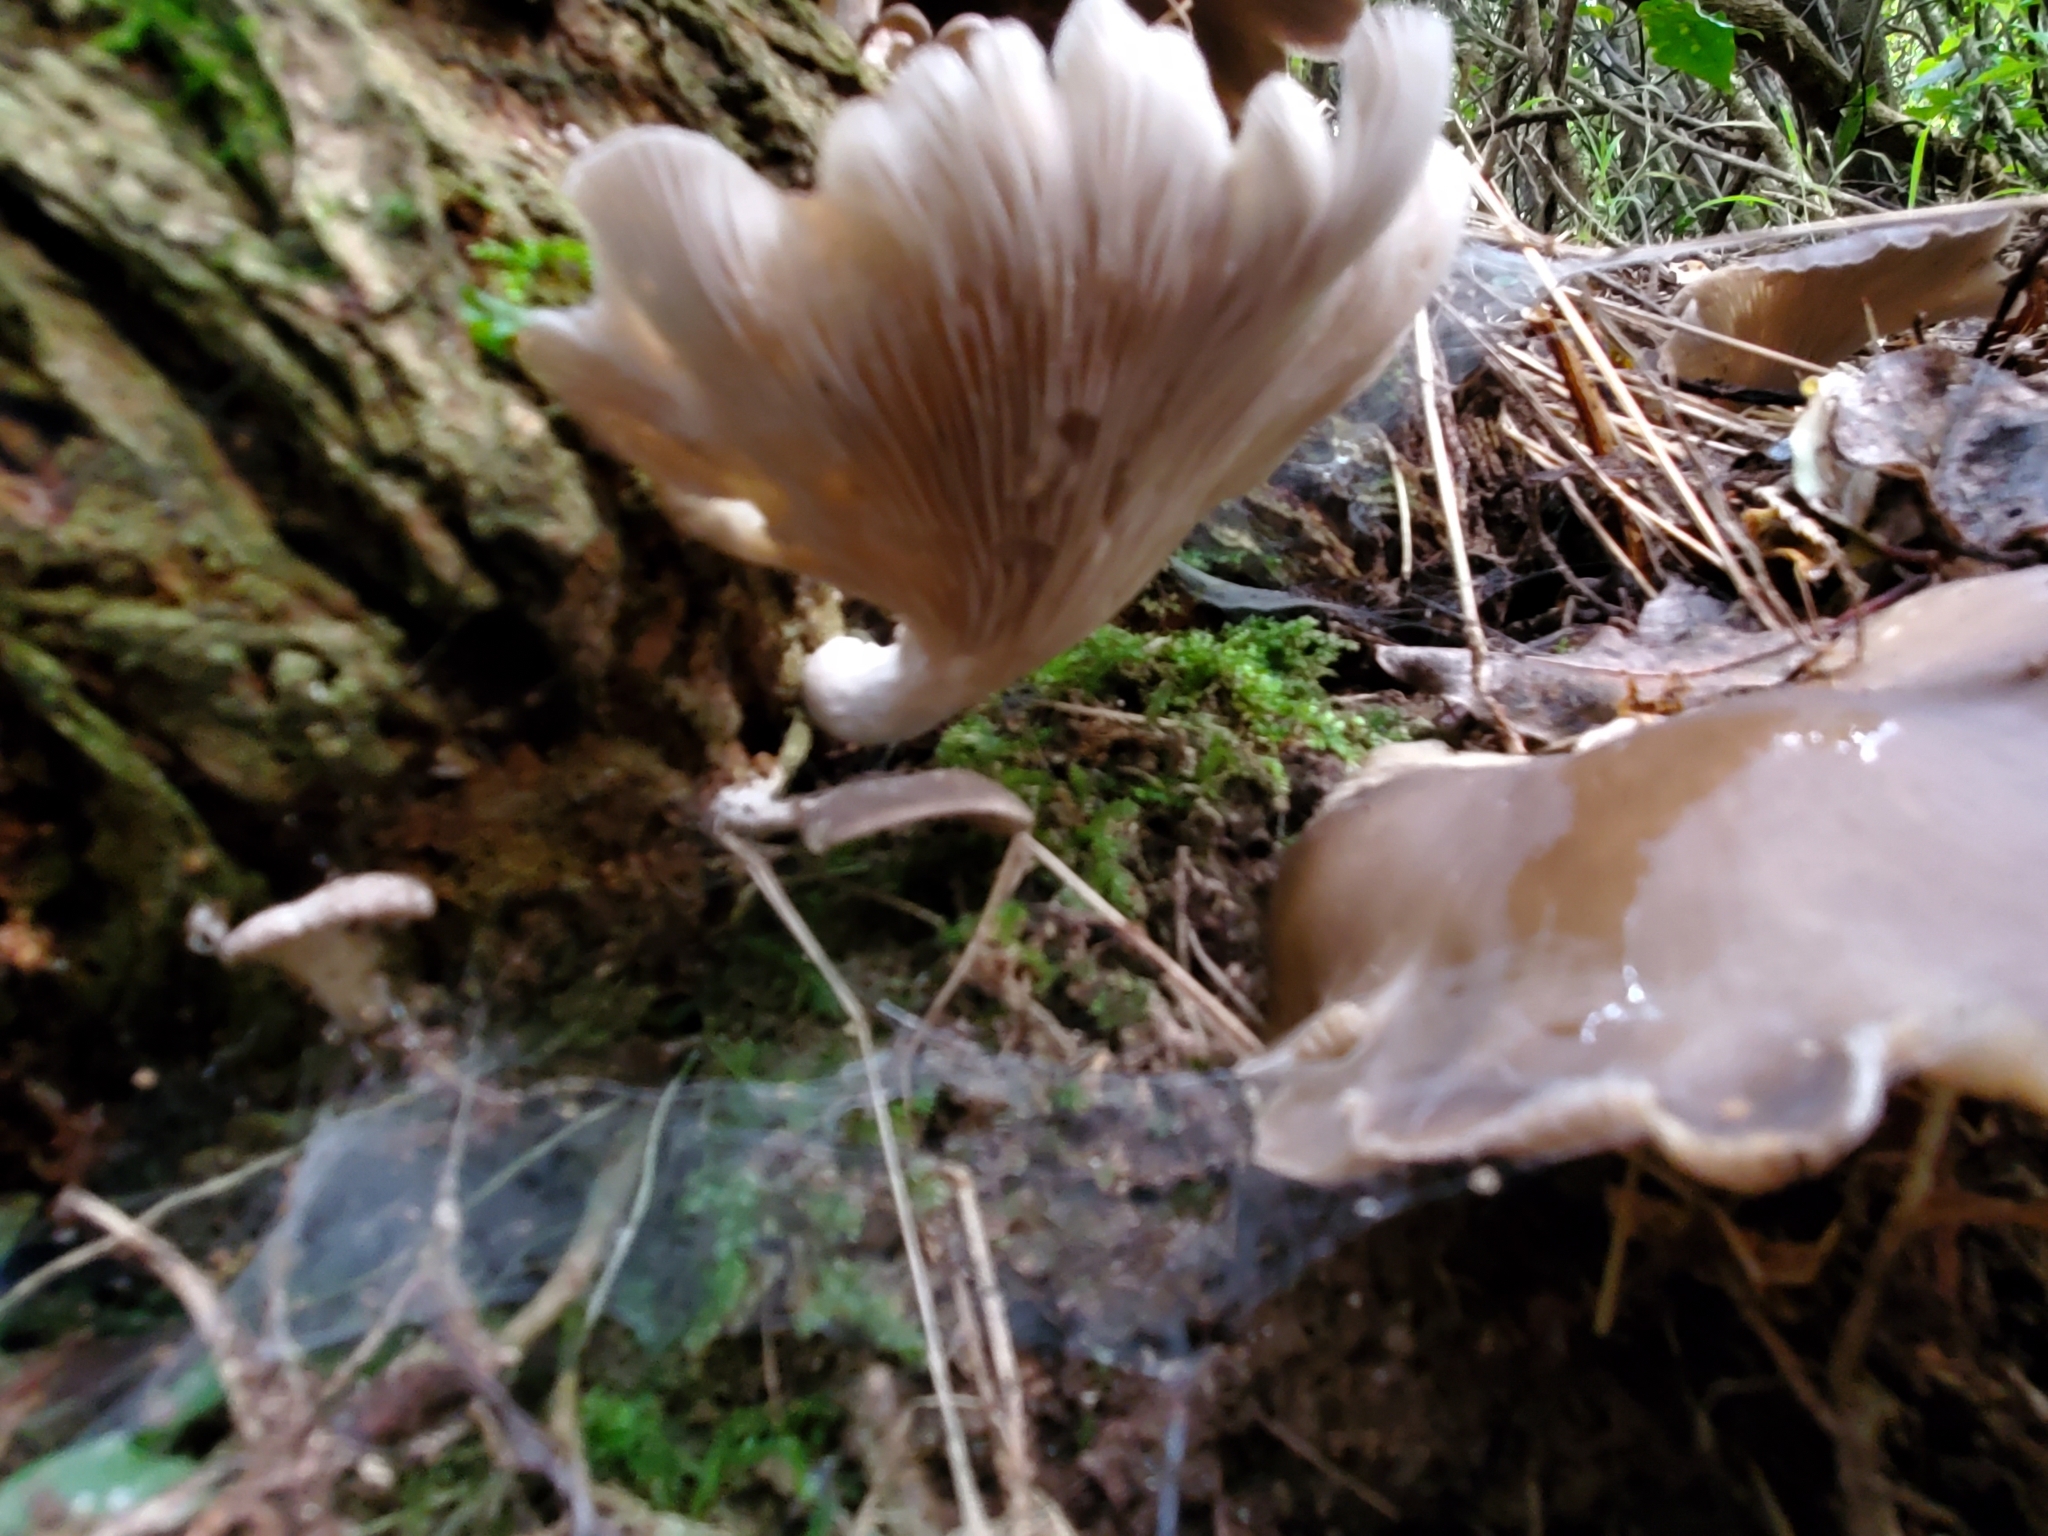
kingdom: Fungi
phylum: Basidiomycota
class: Agaricomycetes
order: Agaricales
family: Pleurotaceae
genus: Pleurotus
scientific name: Pleurotus purpureo-olivaceus
